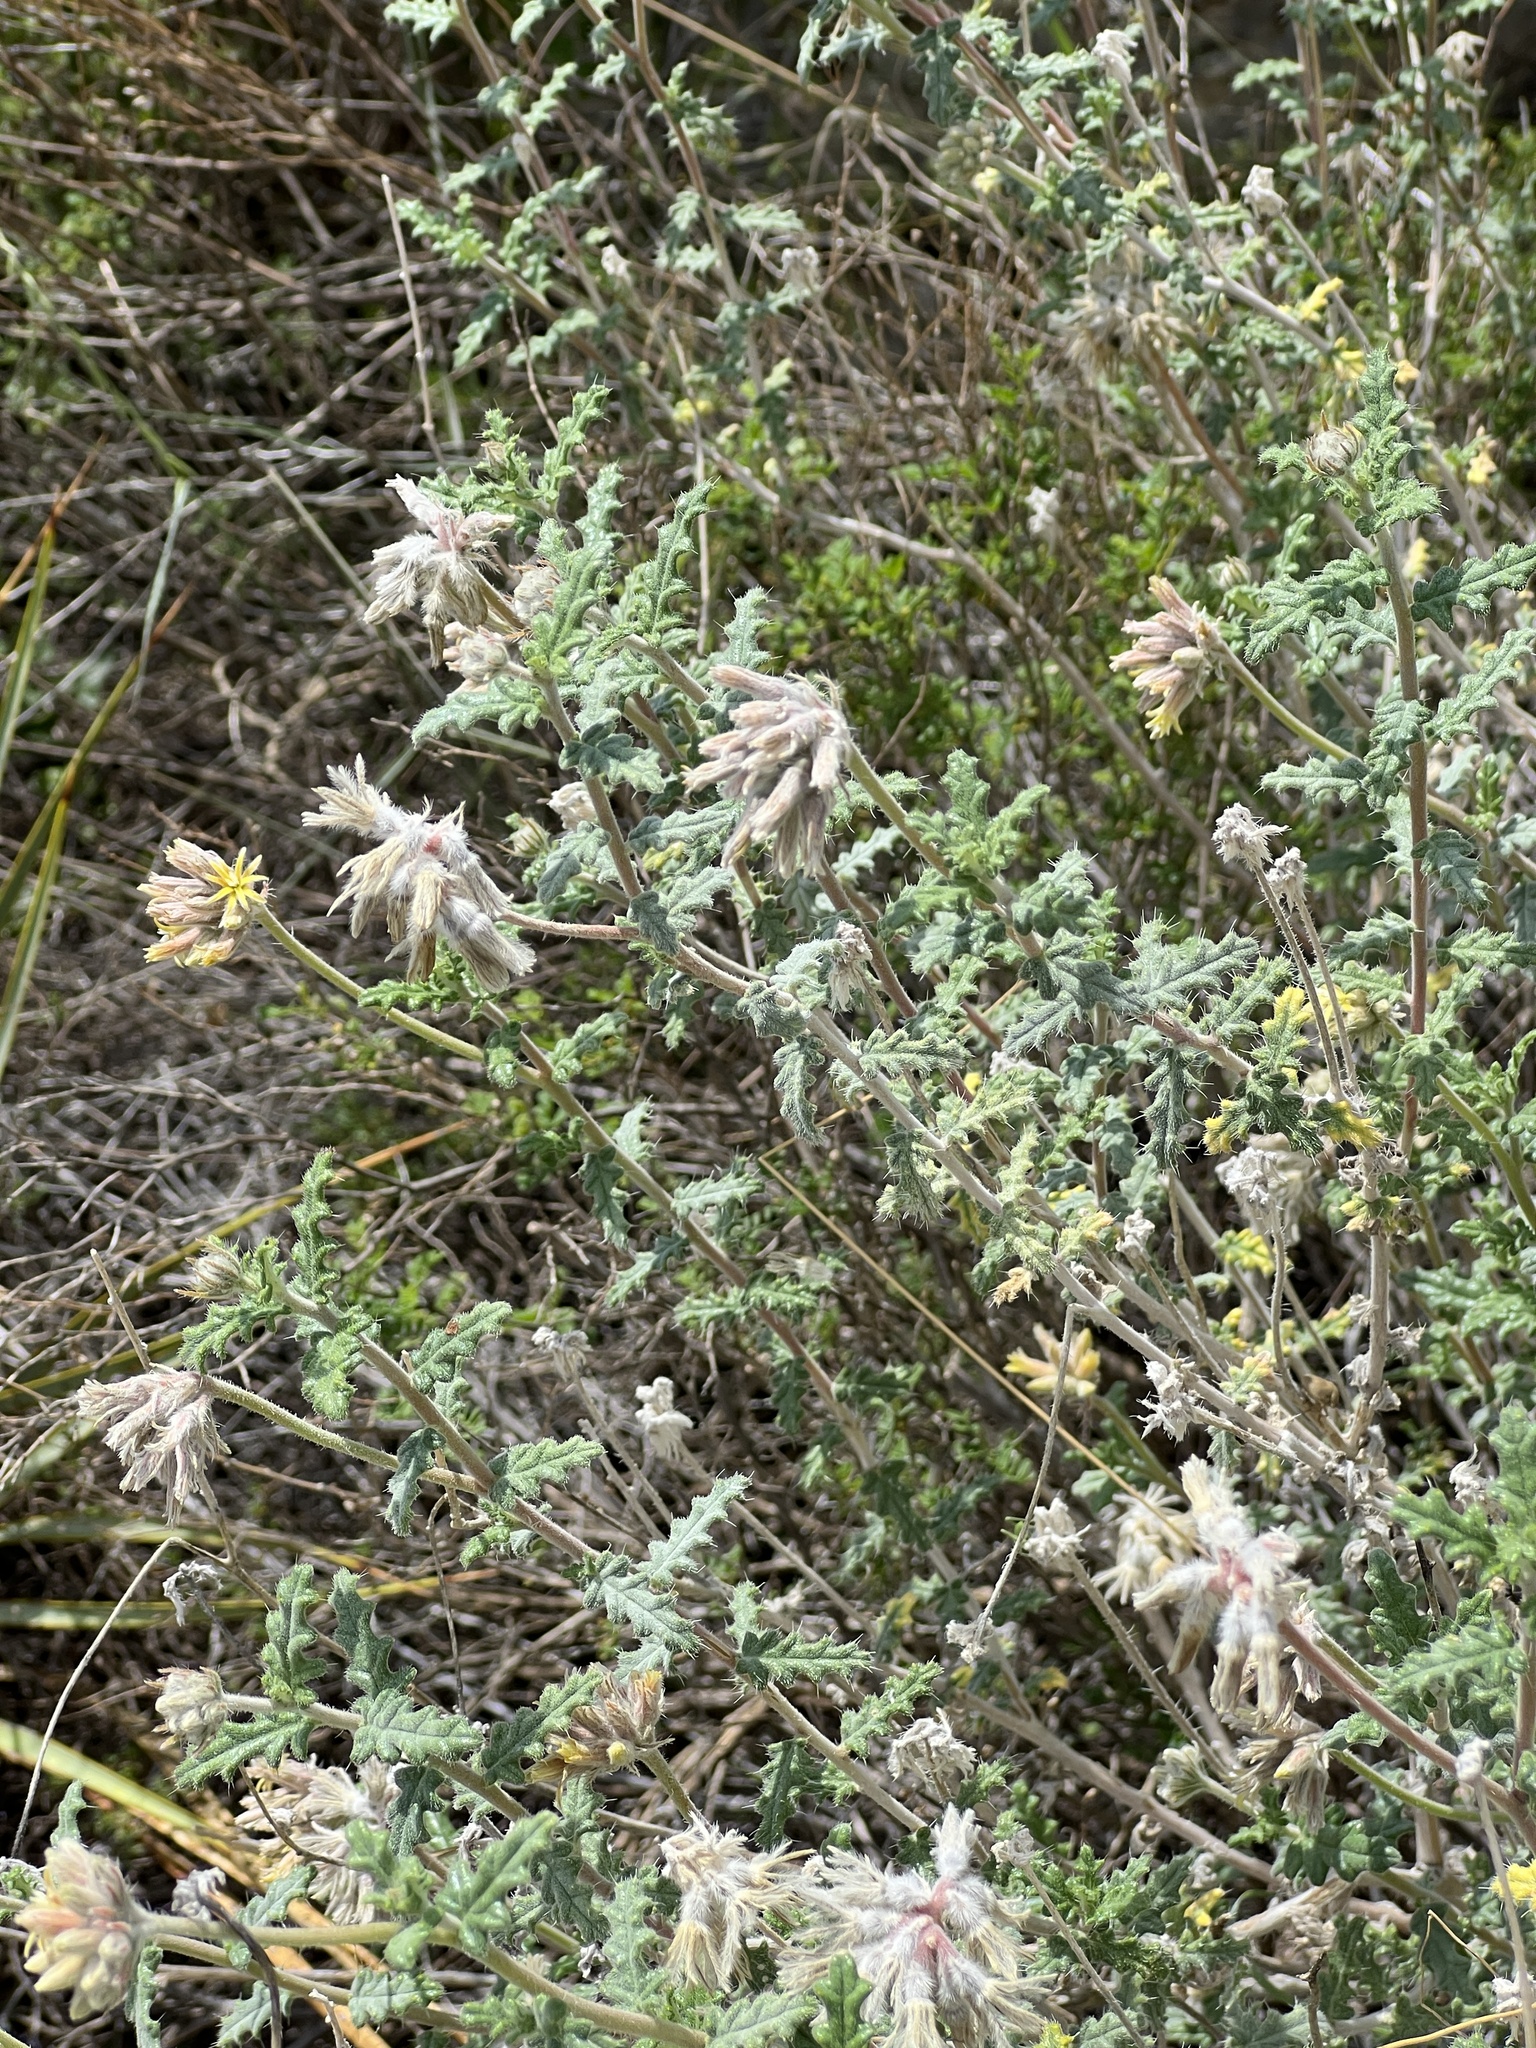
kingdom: Plantae
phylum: Tracheophyta
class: Magnoliopsida
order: Cornales
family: Loasaceae
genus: Cevallia
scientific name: Cevallia sinuata
